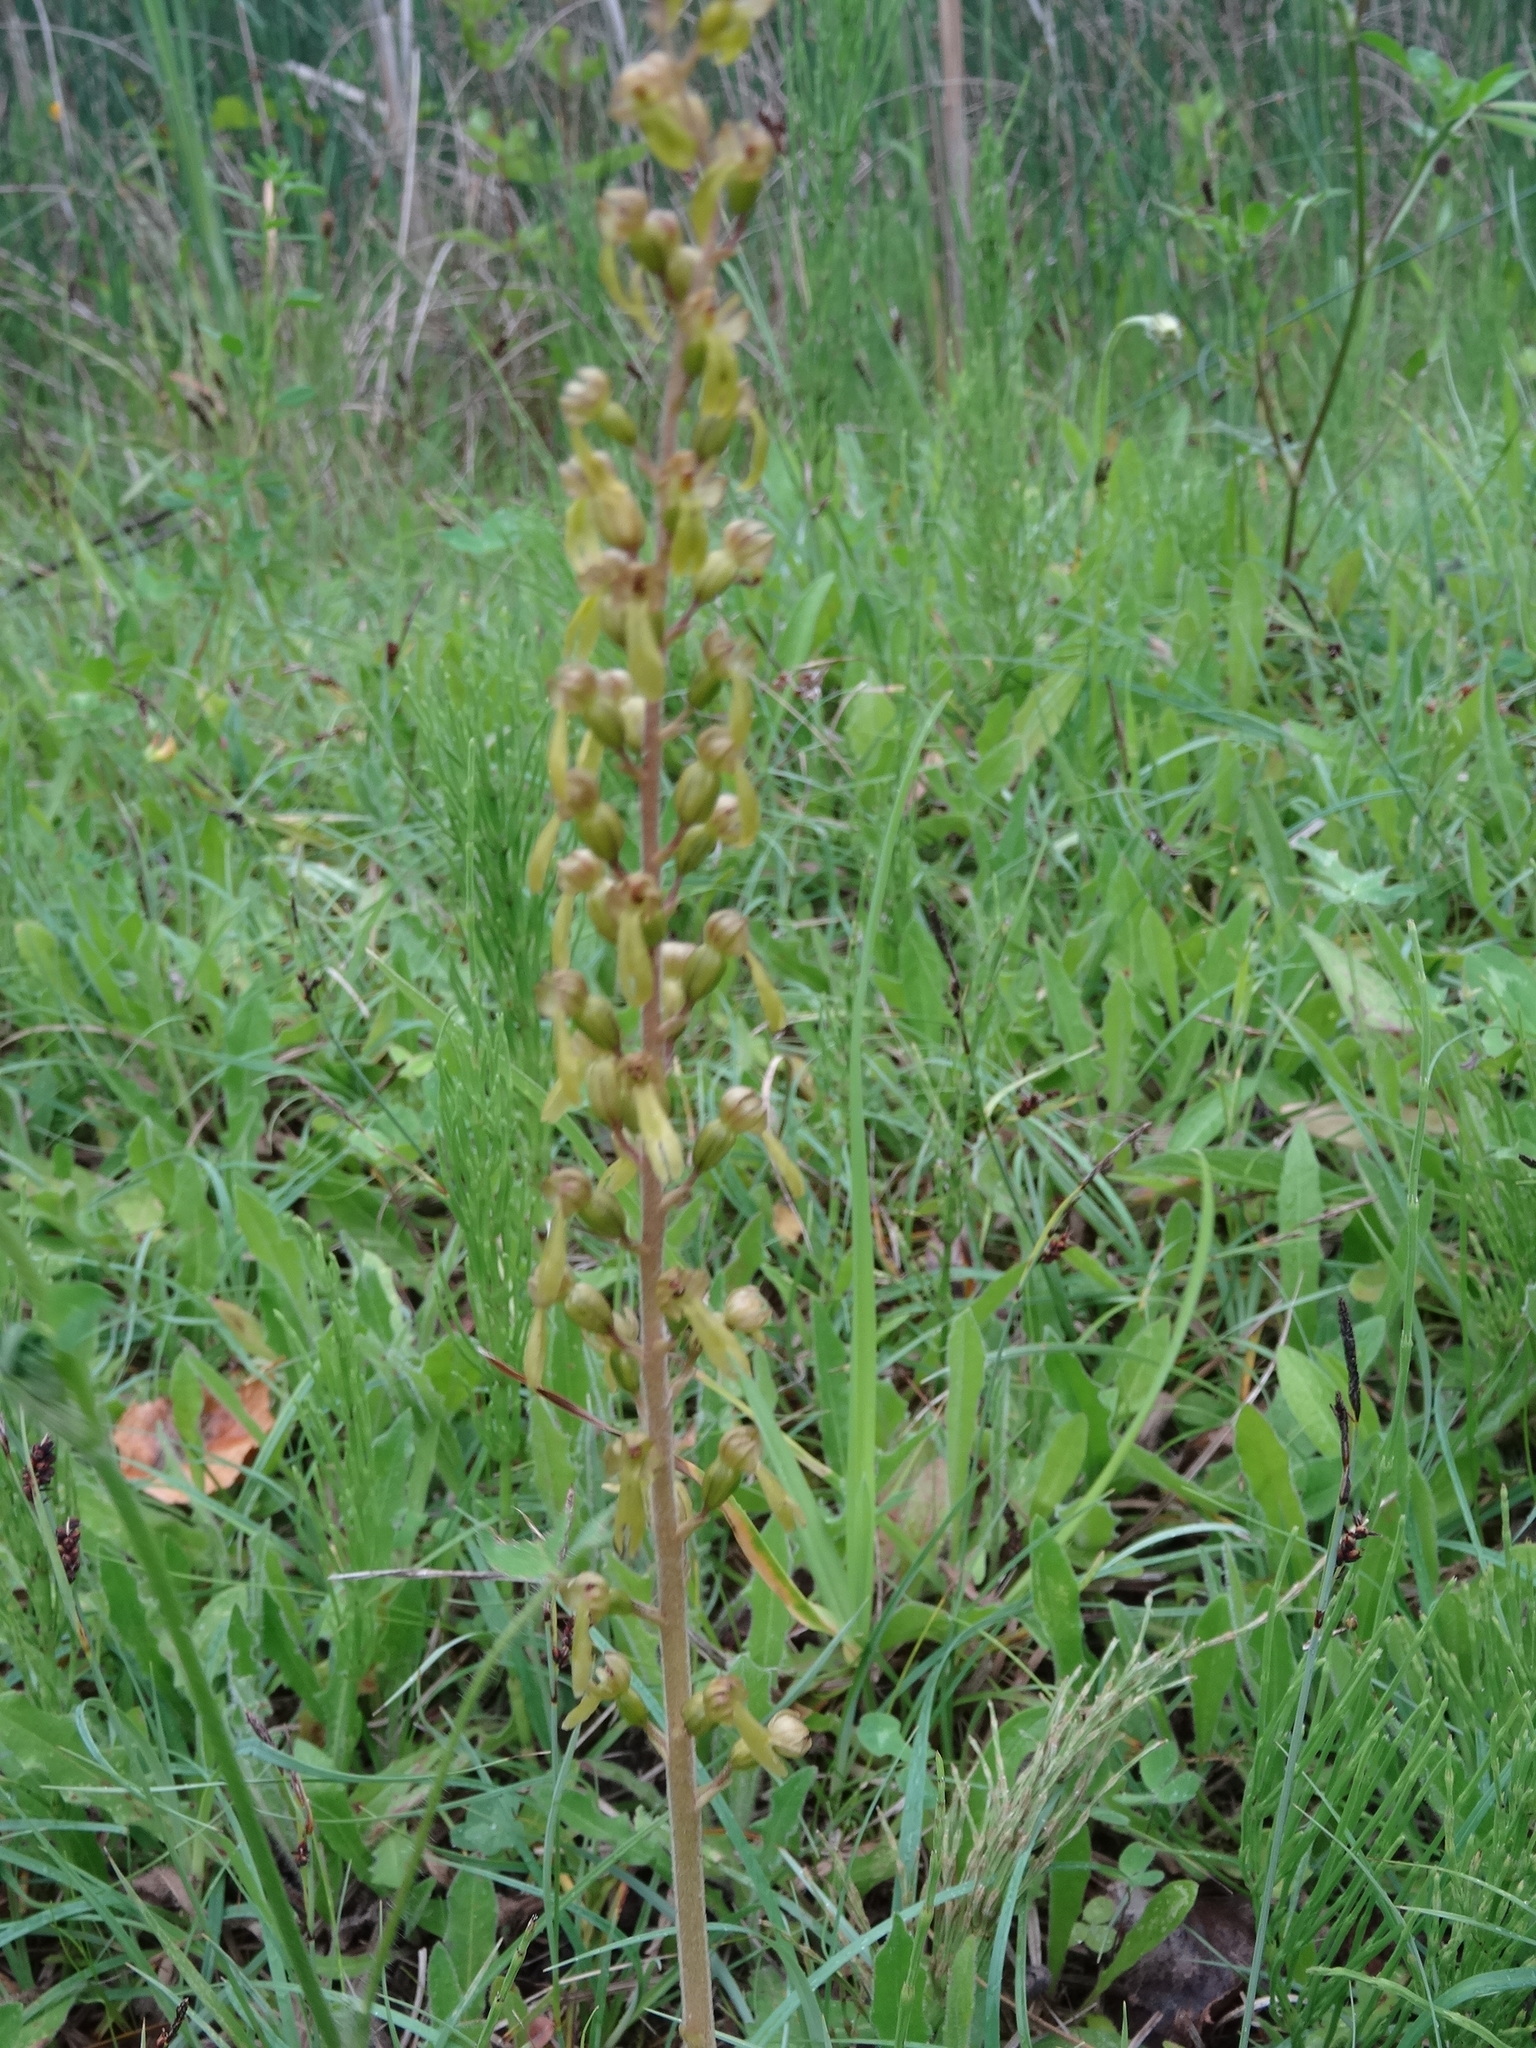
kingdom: Plantae
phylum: Tracheophyta
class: Liliopsida
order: Asparagales
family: Orchidaceae
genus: Neottia
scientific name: Neottia ovata
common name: Common twayblade
